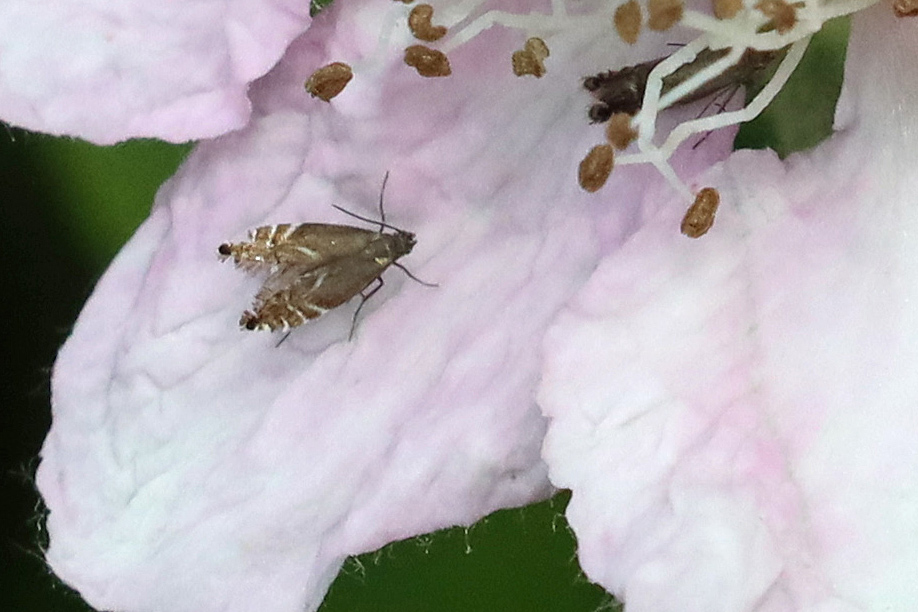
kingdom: Animalia
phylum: Arthropoda
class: Insecta
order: Lepidoptera
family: Glyphipterigidae
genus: Glyphipterix
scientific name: Glyphipterix simpliciella
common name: Cocksfoot moth
